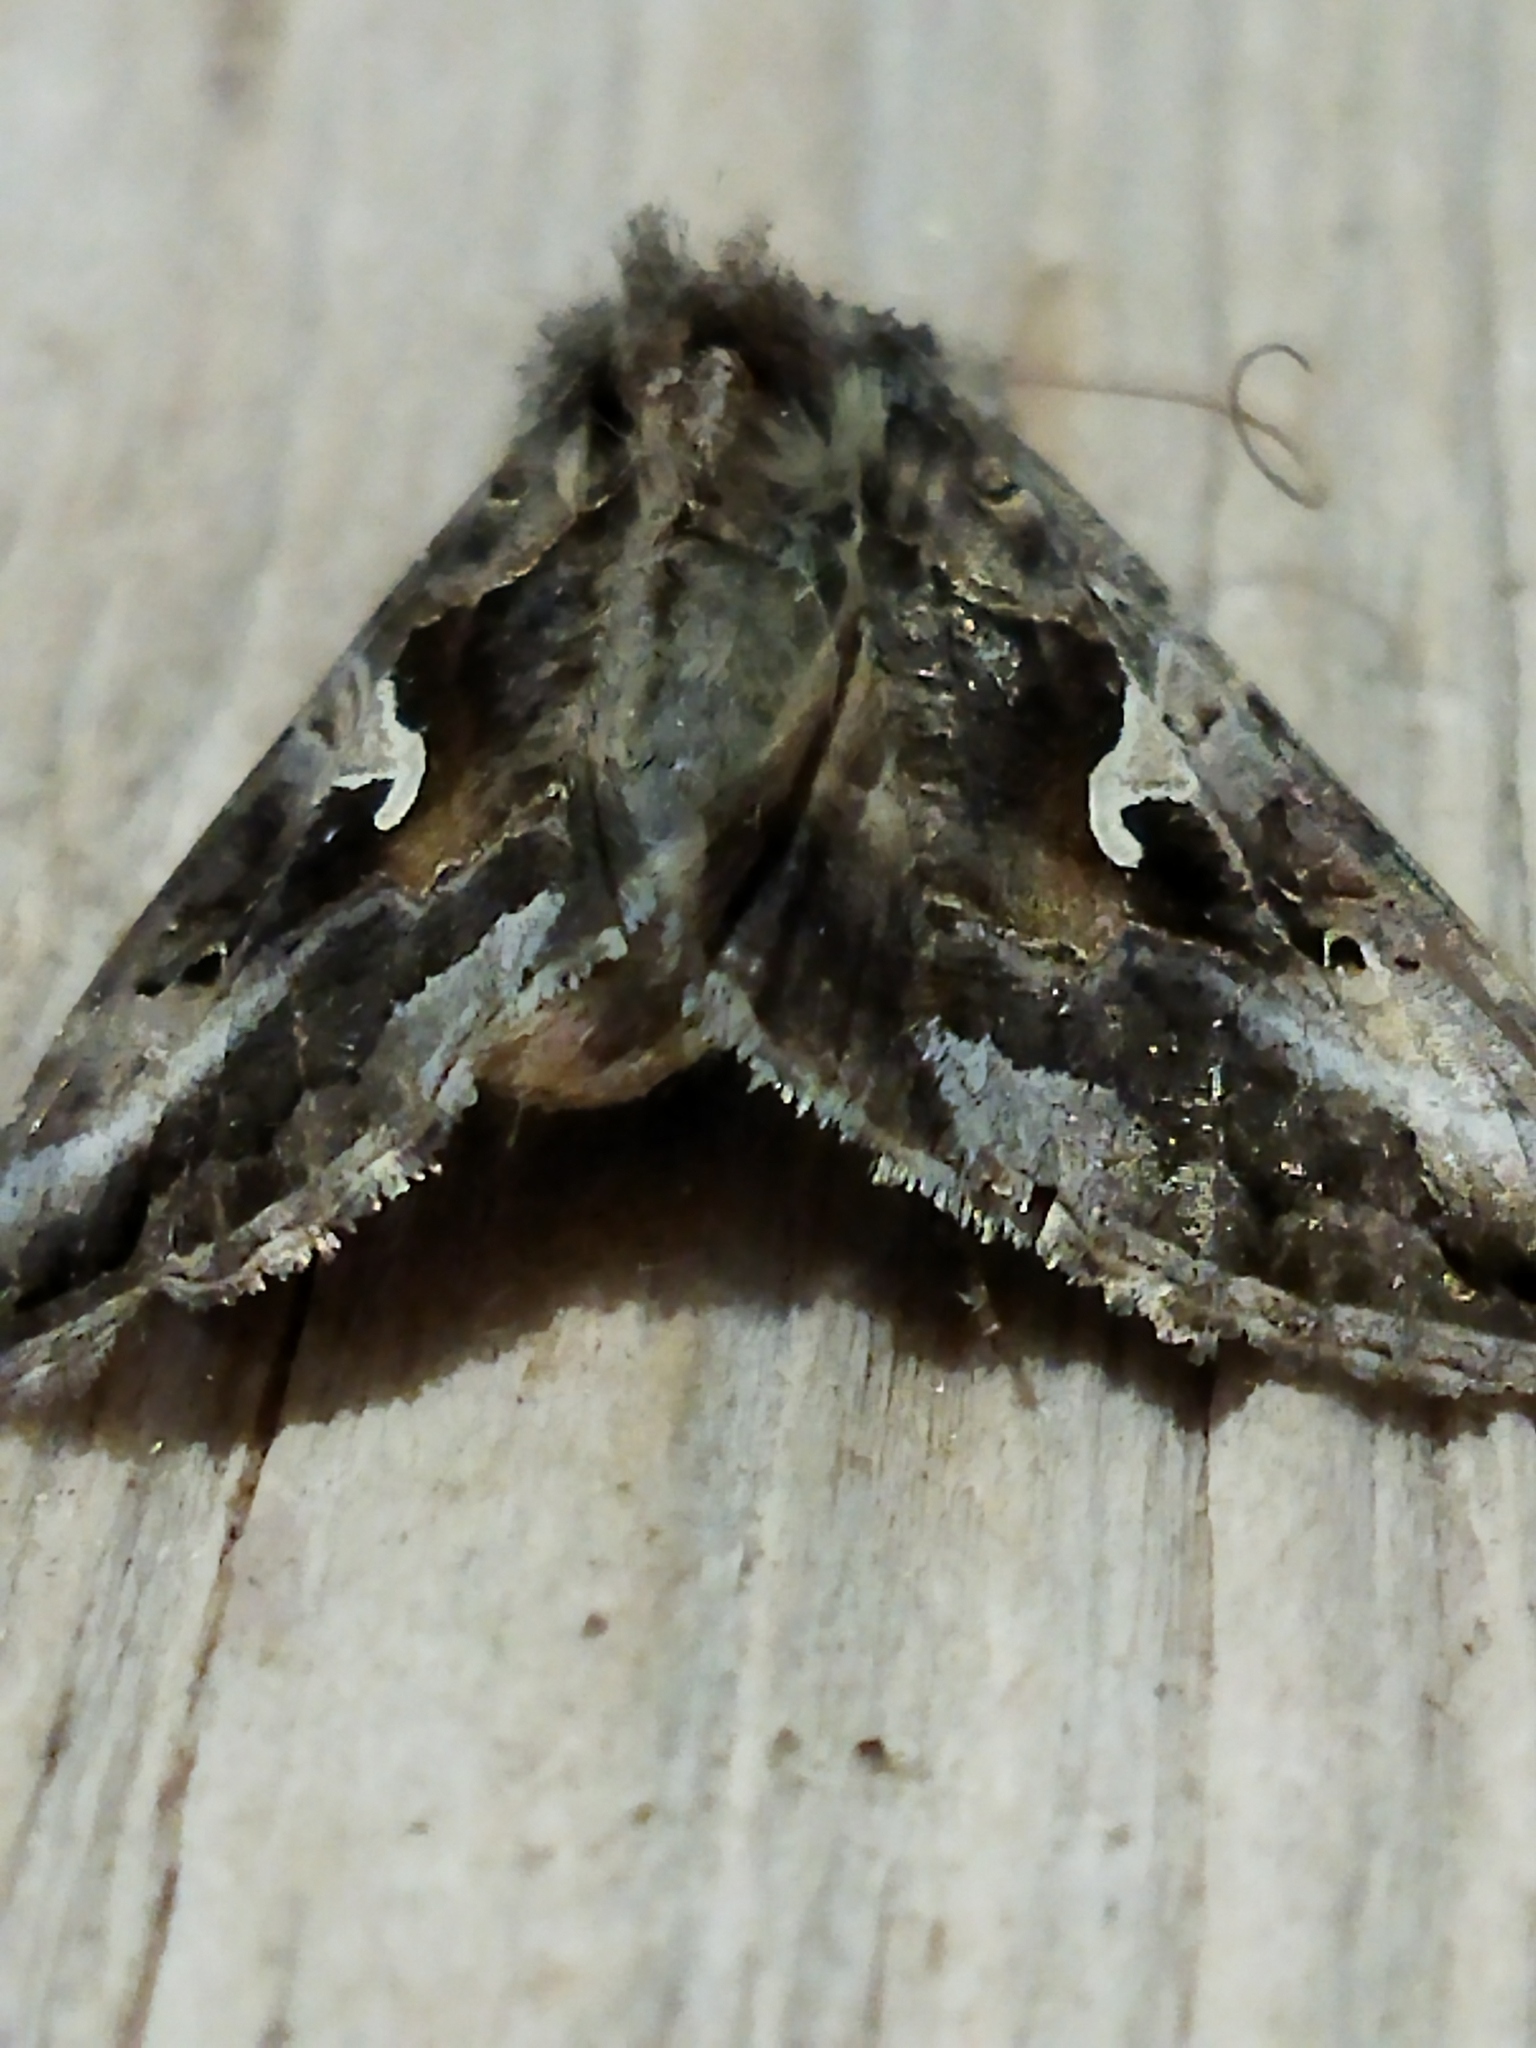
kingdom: Animalia
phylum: Arthropoda
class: Insecta
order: Lepidoptera
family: Noctuidae
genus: Autographa
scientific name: Autographa gamma
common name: Silver y
